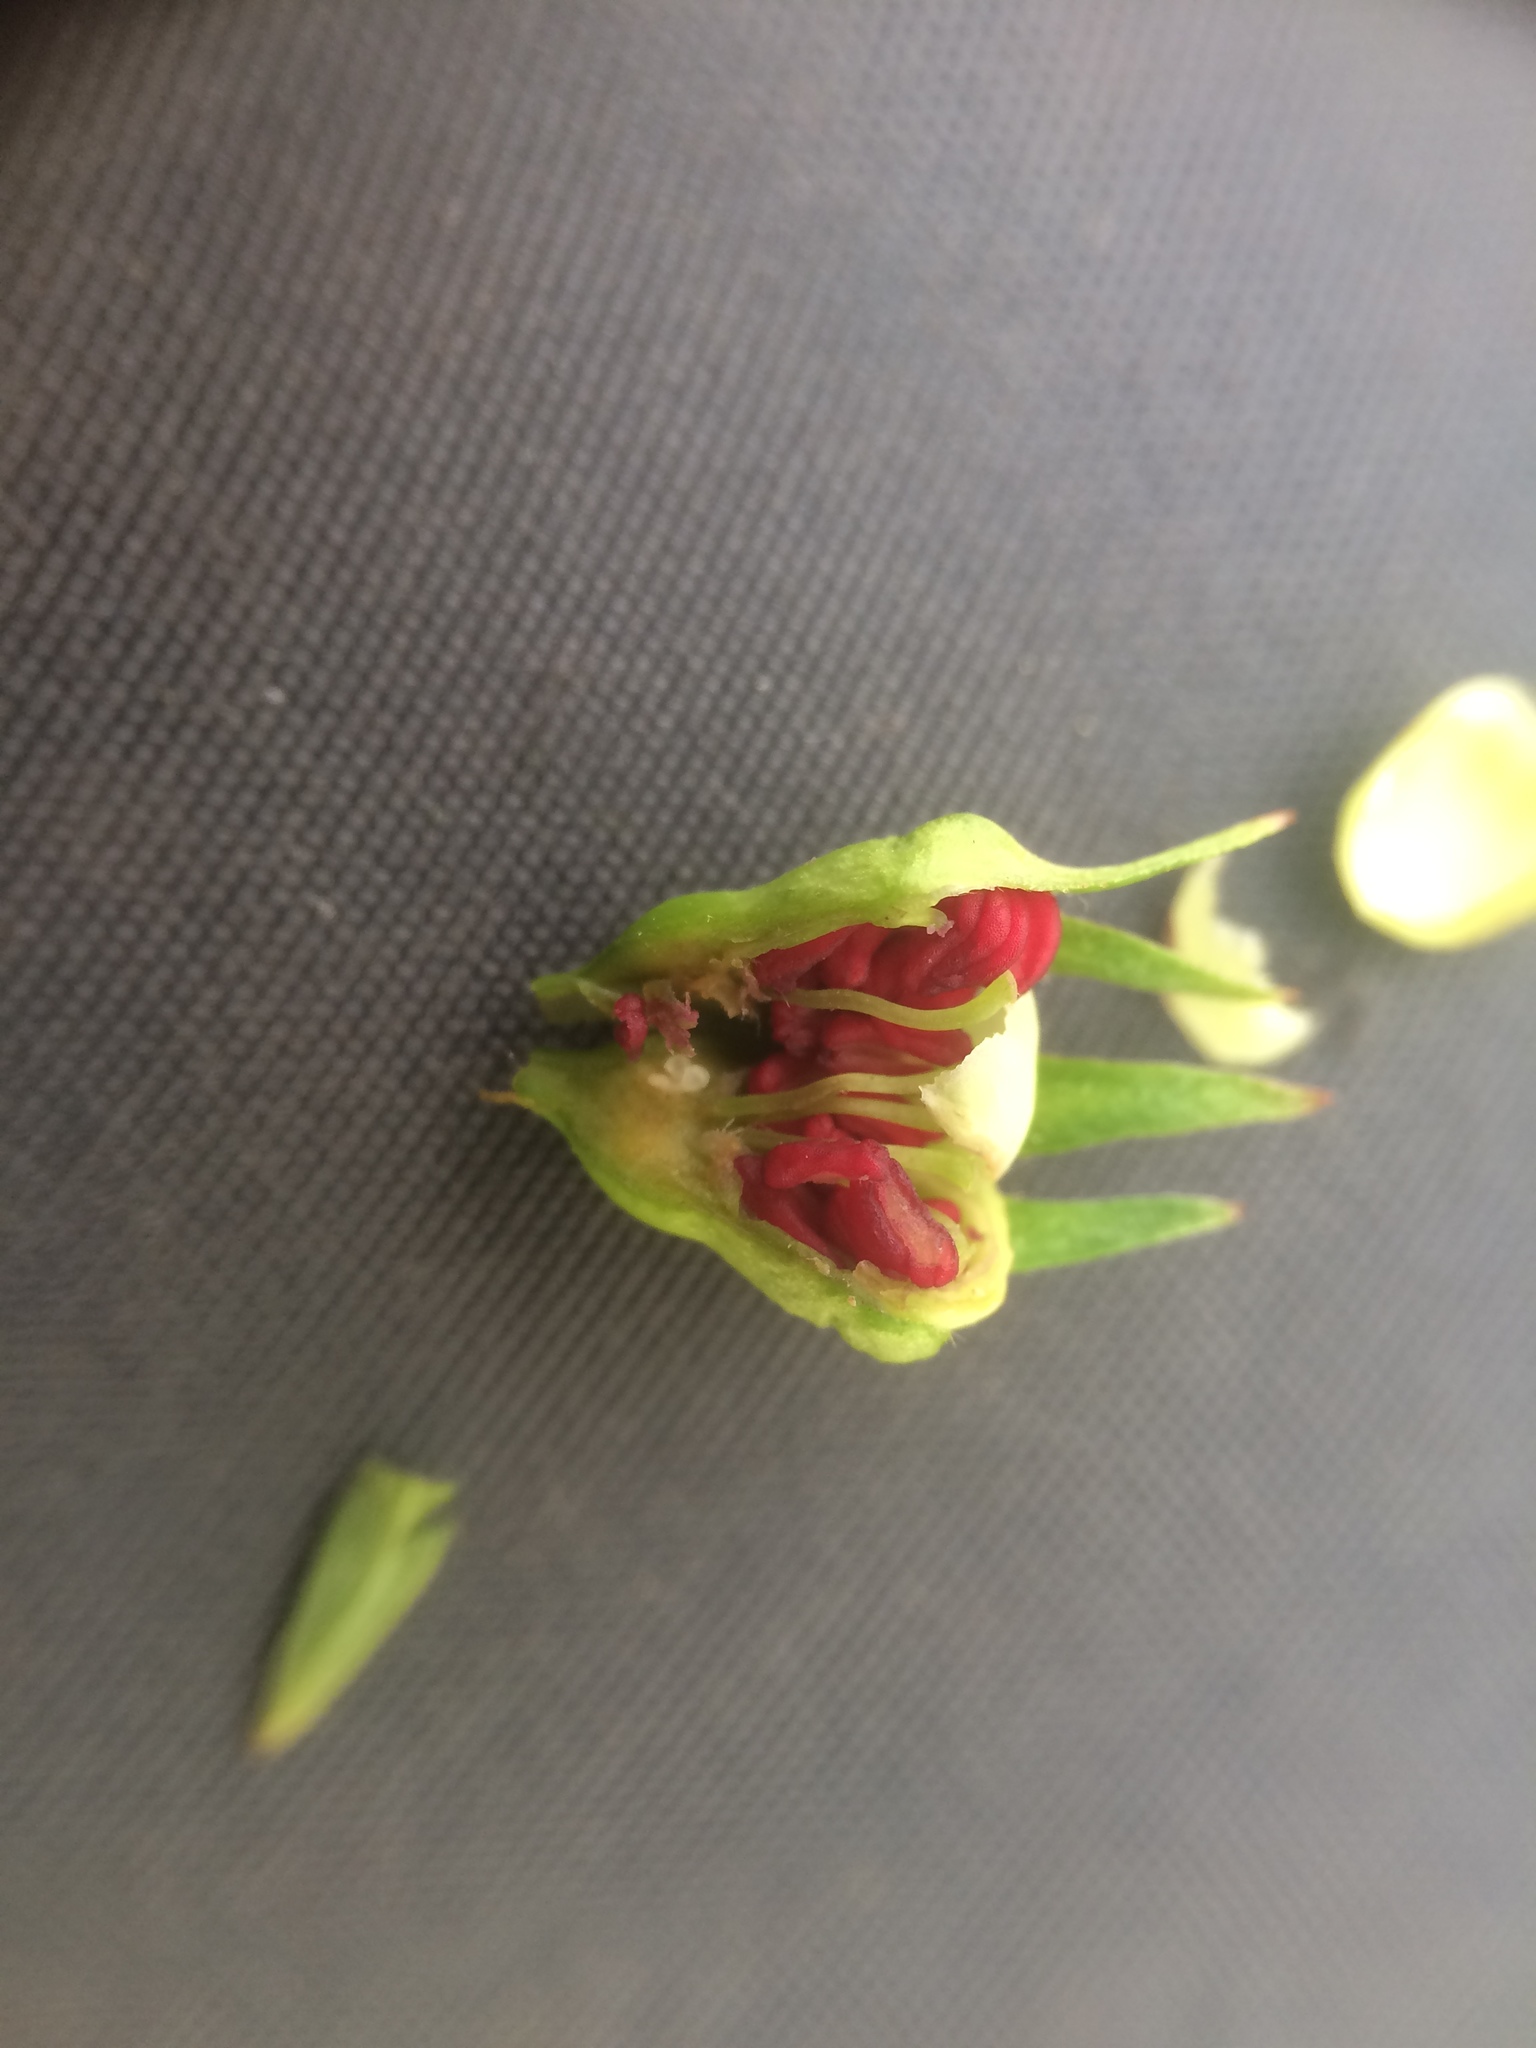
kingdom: Plantae
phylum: Tracheophyta
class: Magnoliopsida
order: Rosales
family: Rosaceae
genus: Crataegus
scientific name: Crataegus suborbiculata
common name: Caughnawaga hawthorn
